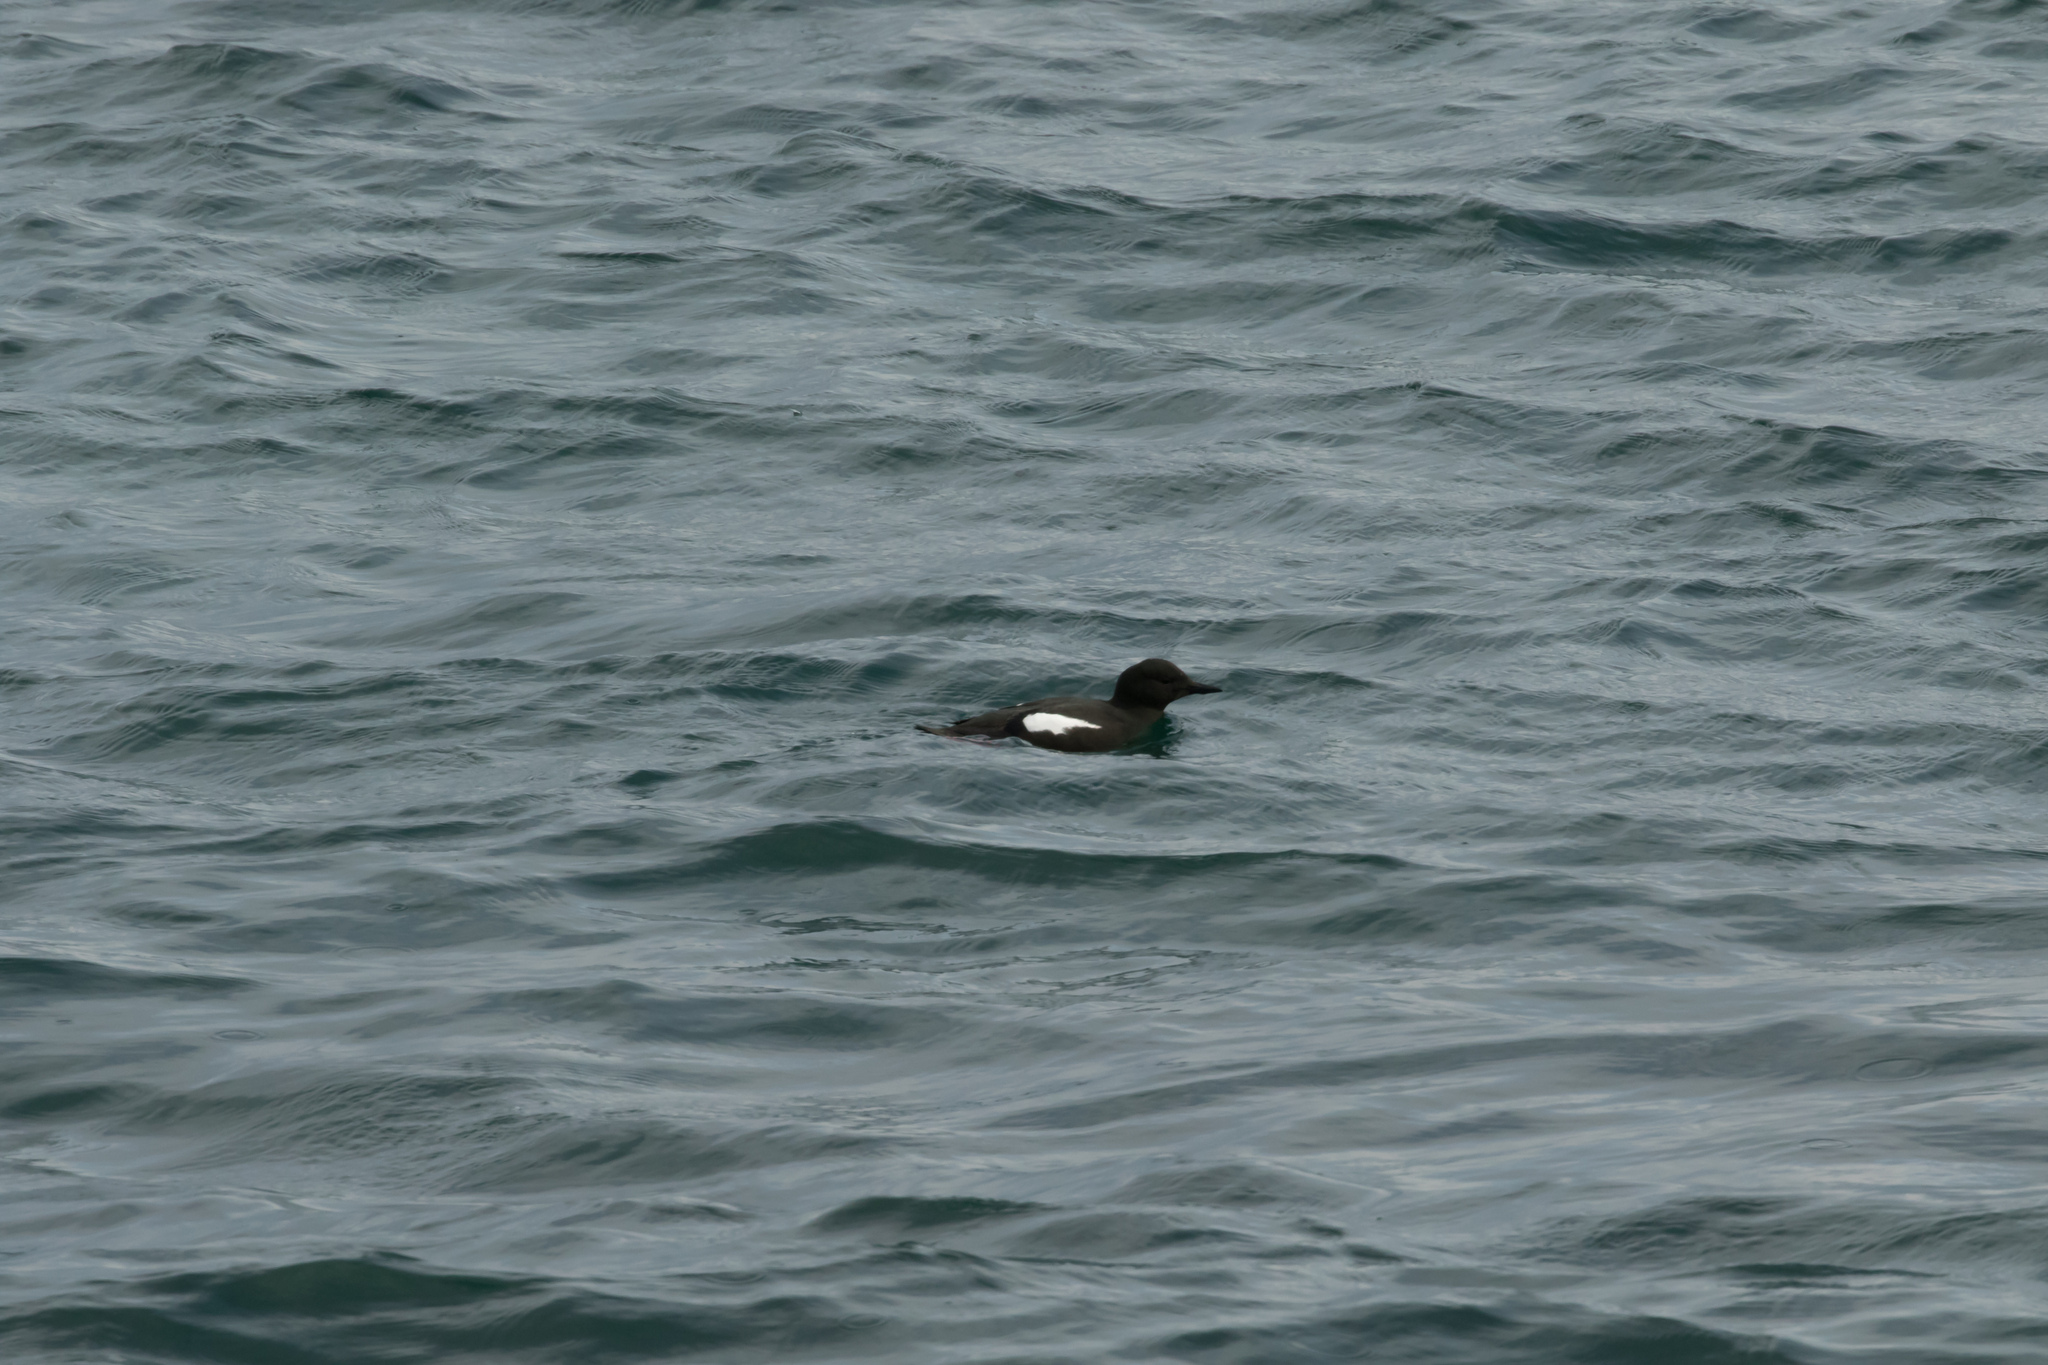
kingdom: Animalia
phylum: Chordata
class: Aves
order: Charadriiformes
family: Alcidae
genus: Cepphus
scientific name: Cepphus grylle
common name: Black guillemot
